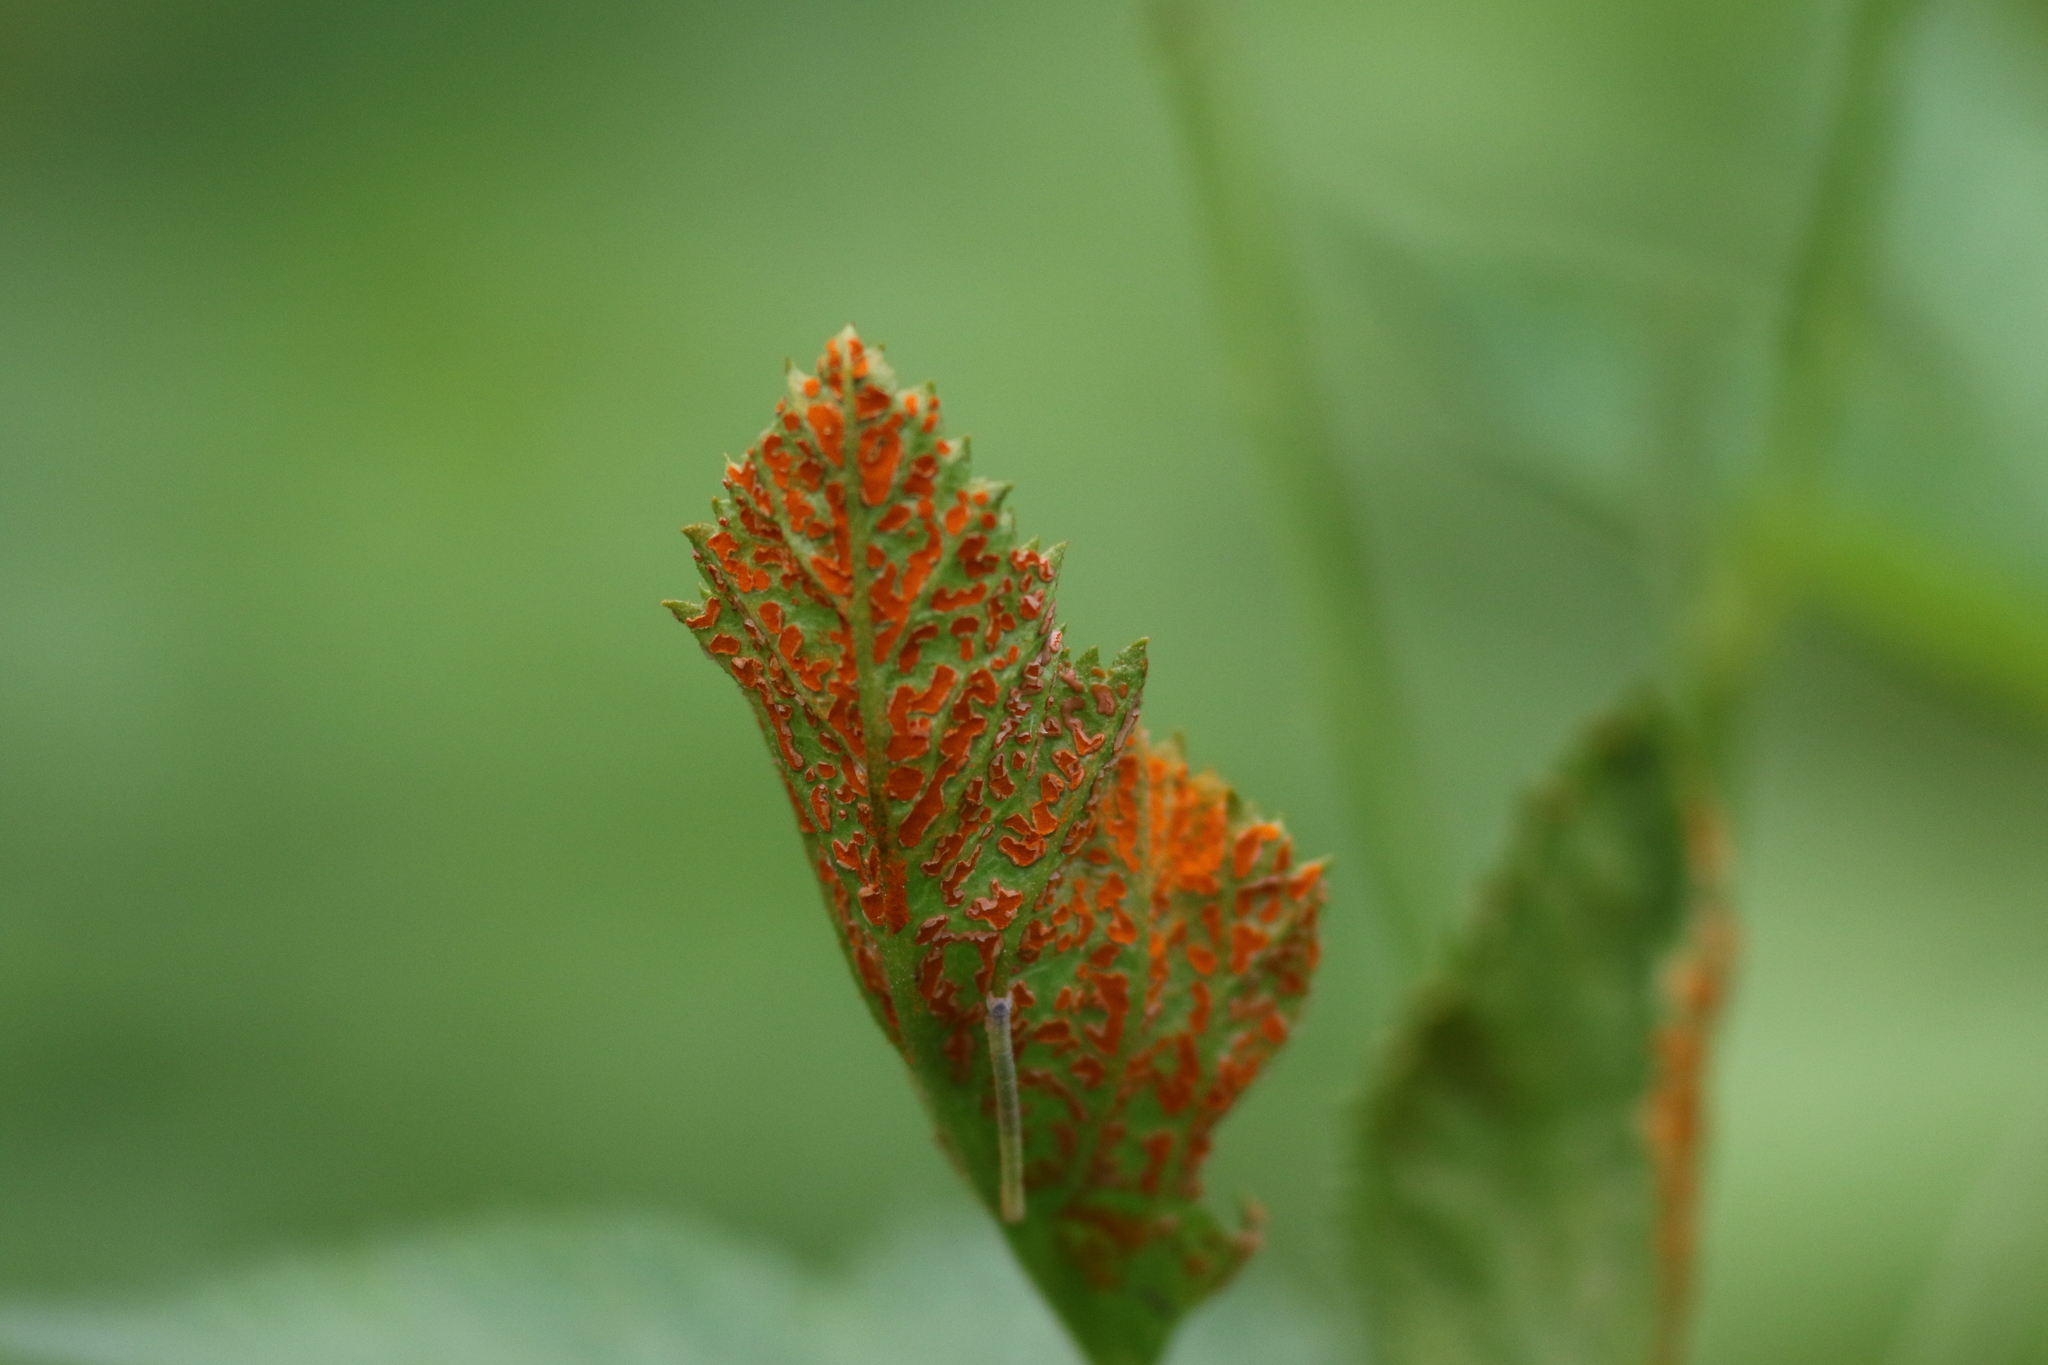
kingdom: Fungi
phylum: Basidiomycota
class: Pucciniomycetes
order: Pucciniales
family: Phragmidiaceae
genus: Arthuriomyces
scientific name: Arthuriomyces peckianus
